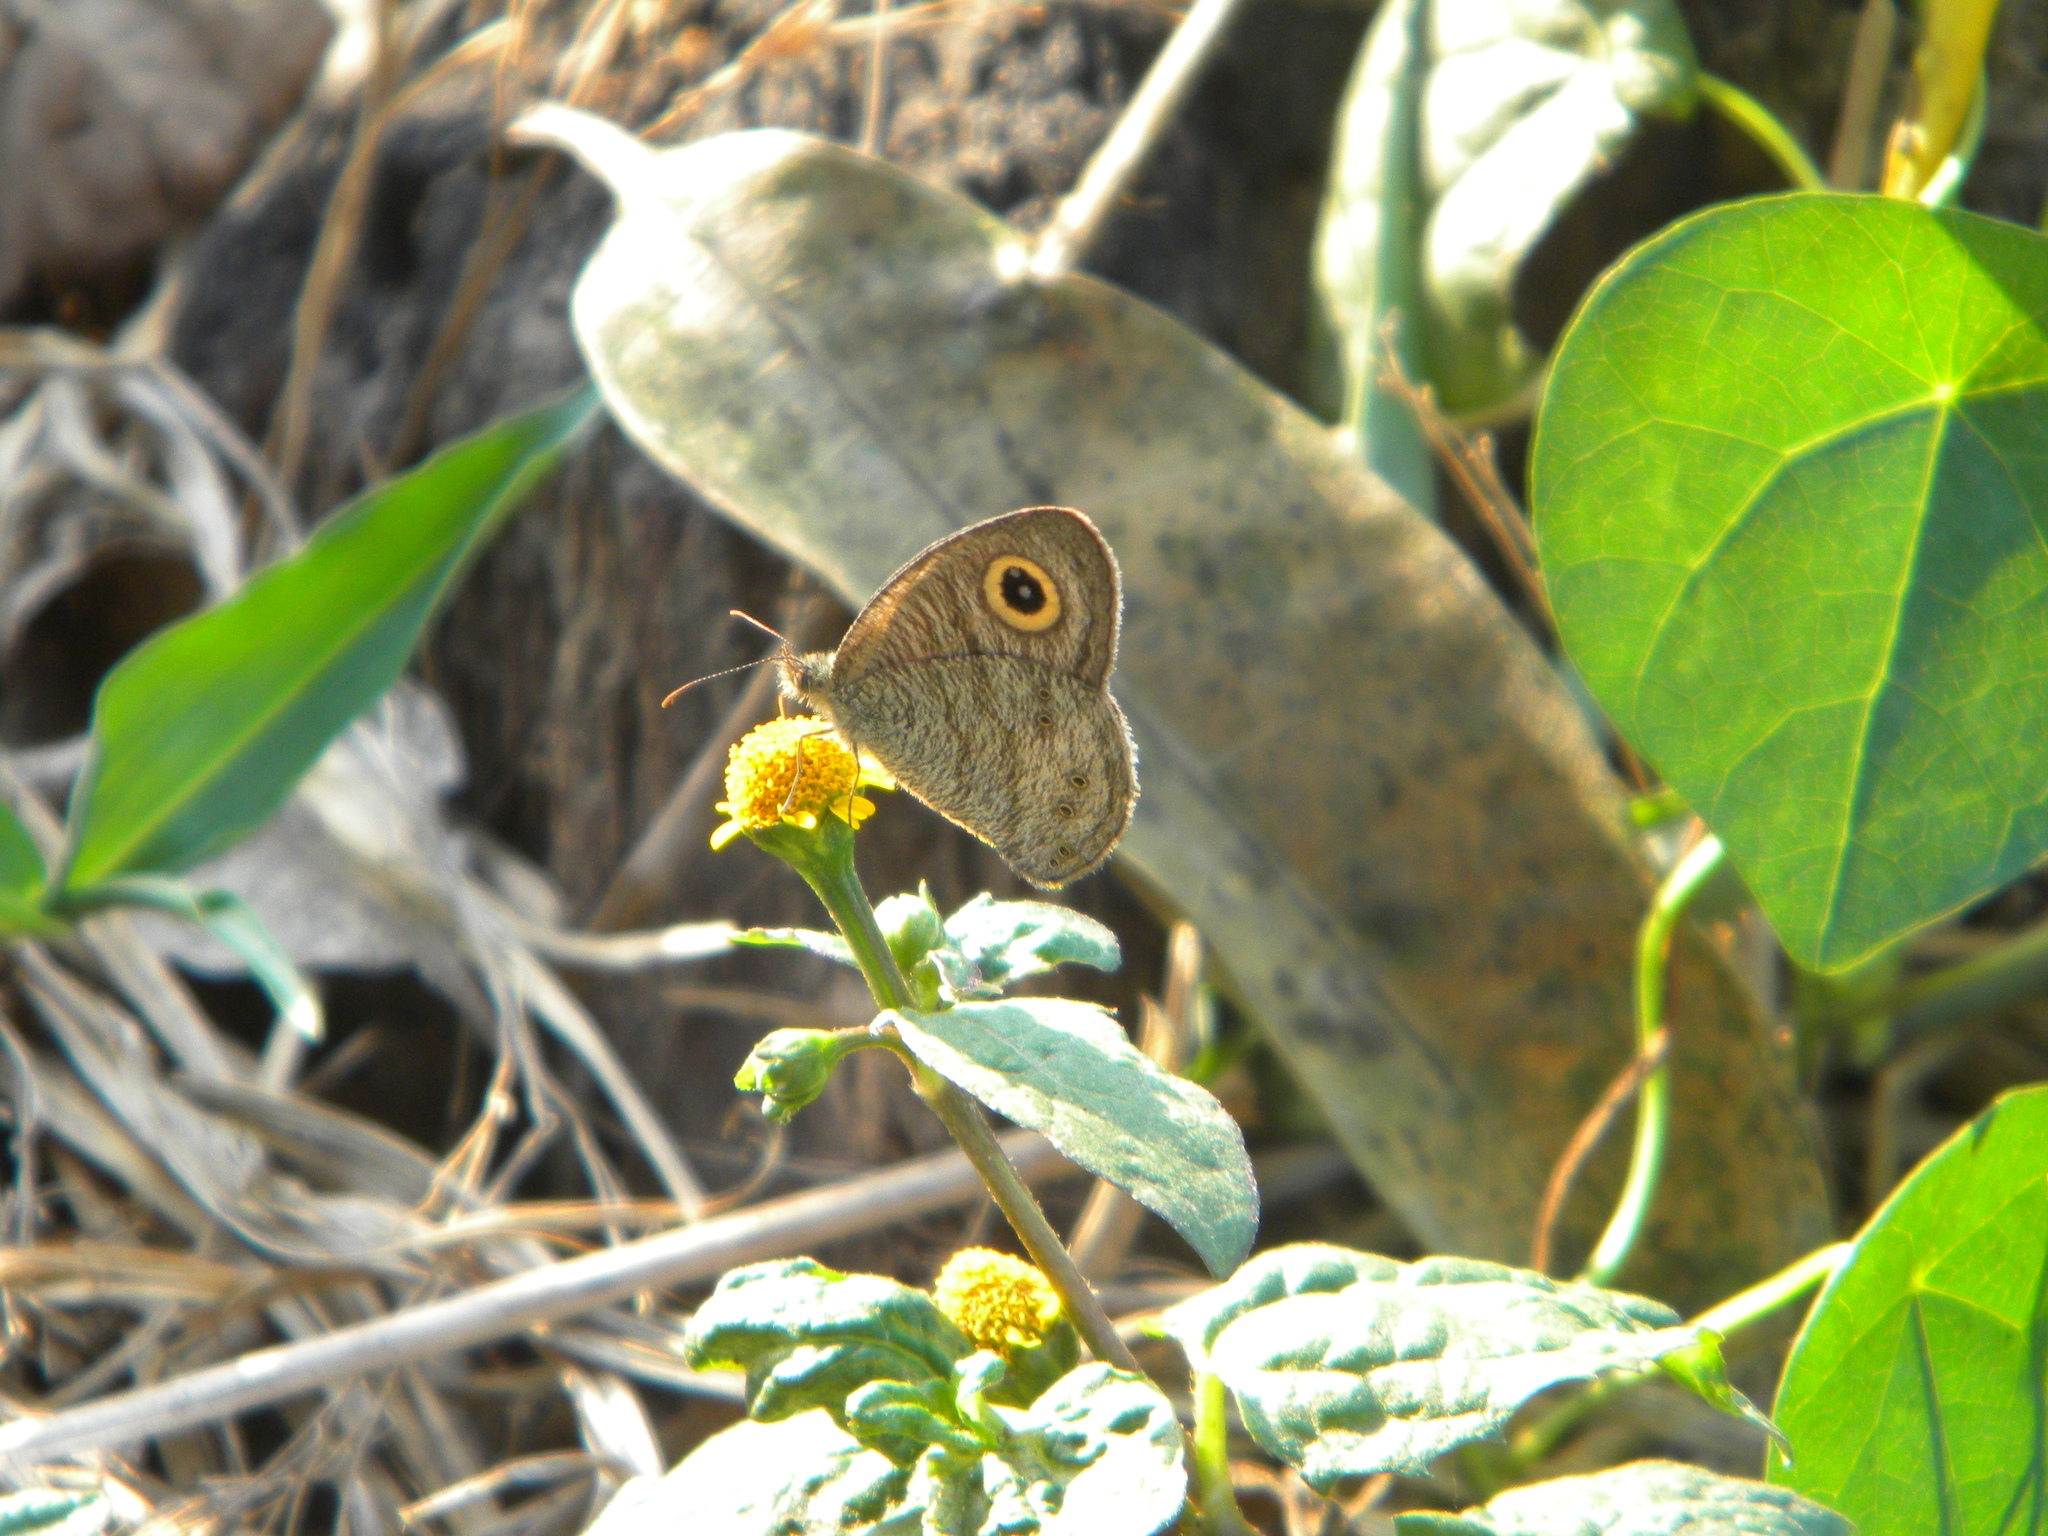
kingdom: Animalia
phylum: Arthropoda
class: Insecta
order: Lepidoptera
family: Nymphalidae
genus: Ypthima
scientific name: Ypthima avanta
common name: Jewel five-ring
